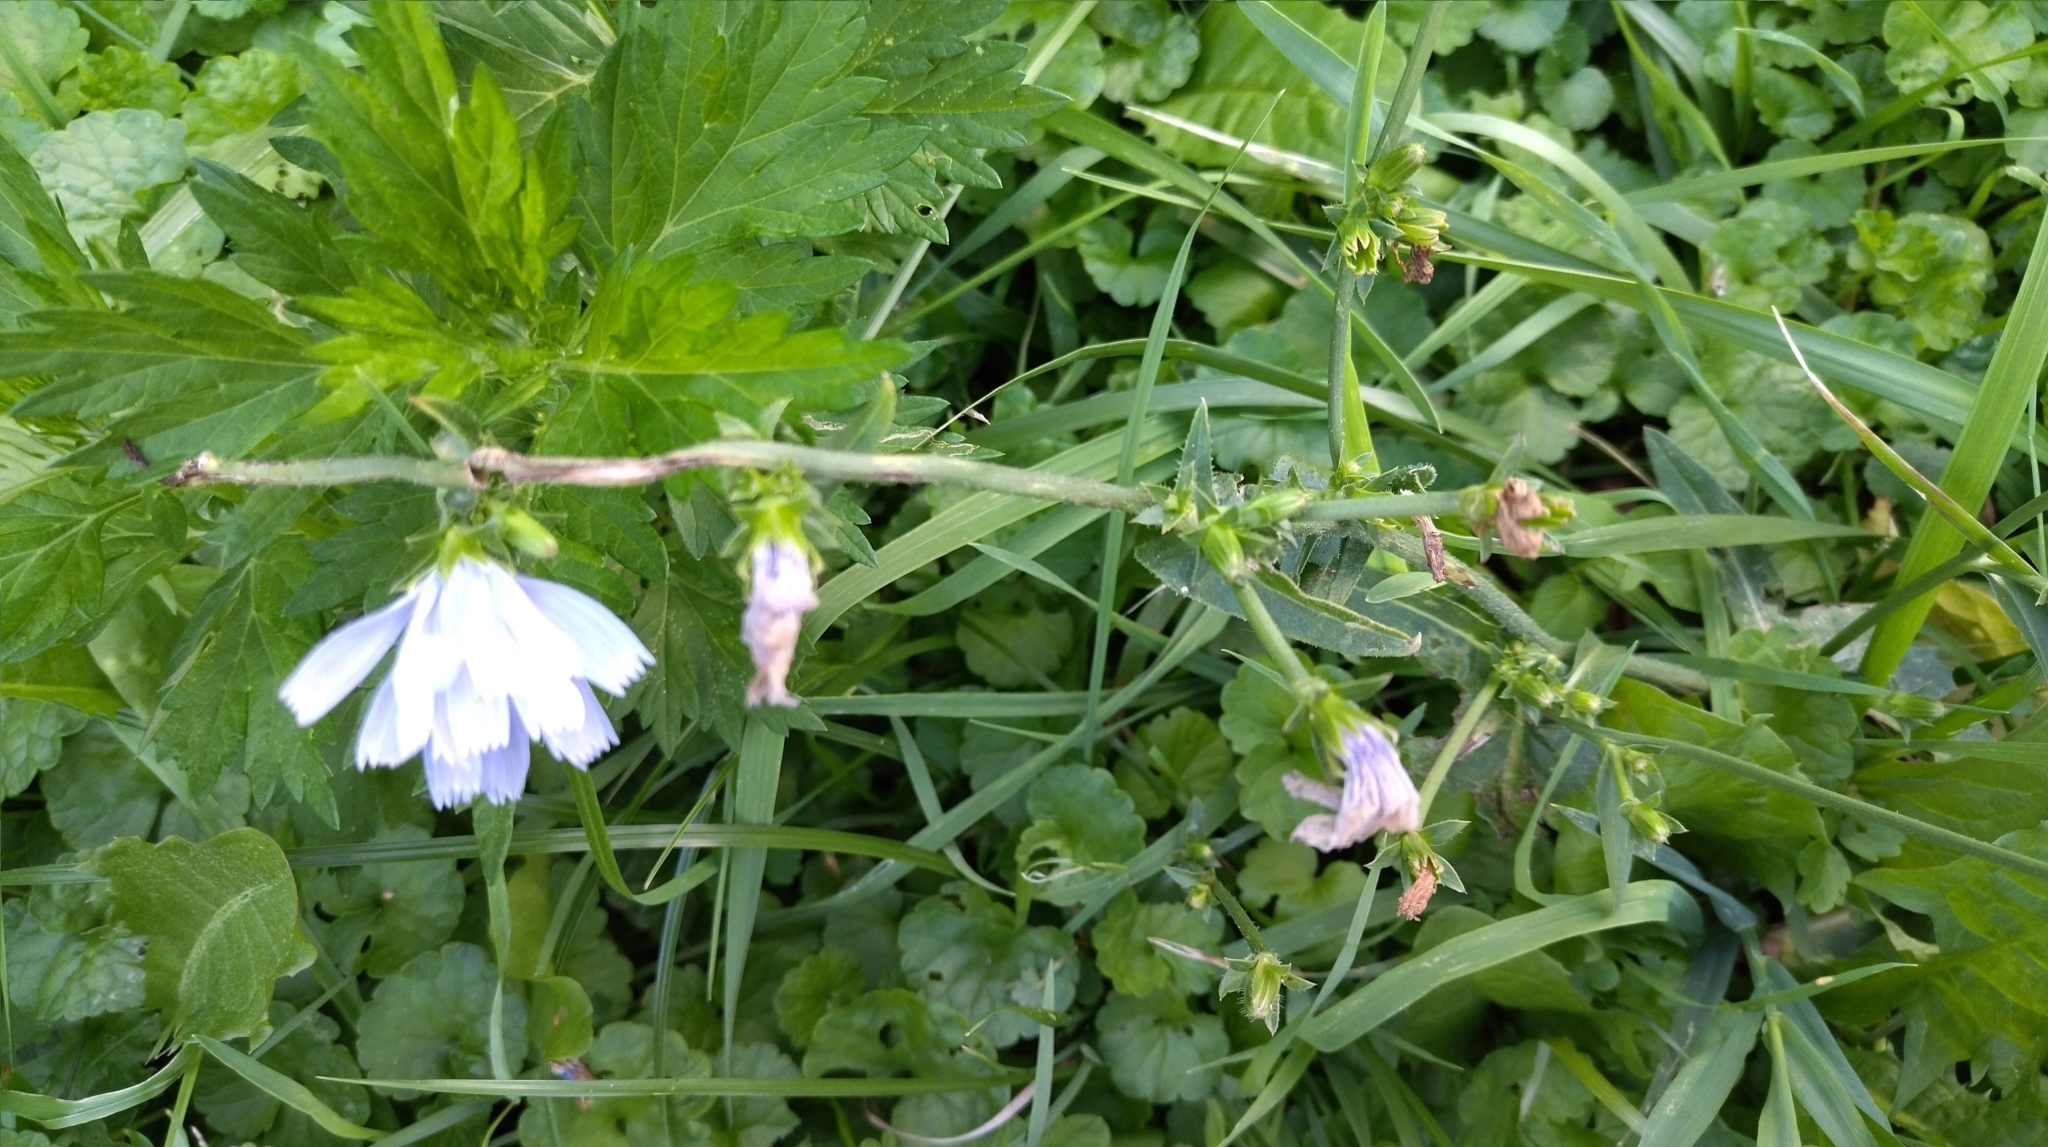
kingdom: Plantae
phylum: Tracheophyta
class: Magnoliopsida
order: Asterales
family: Asteraceae
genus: Cichorium
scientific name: Cichorium intybus
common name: Chicory
